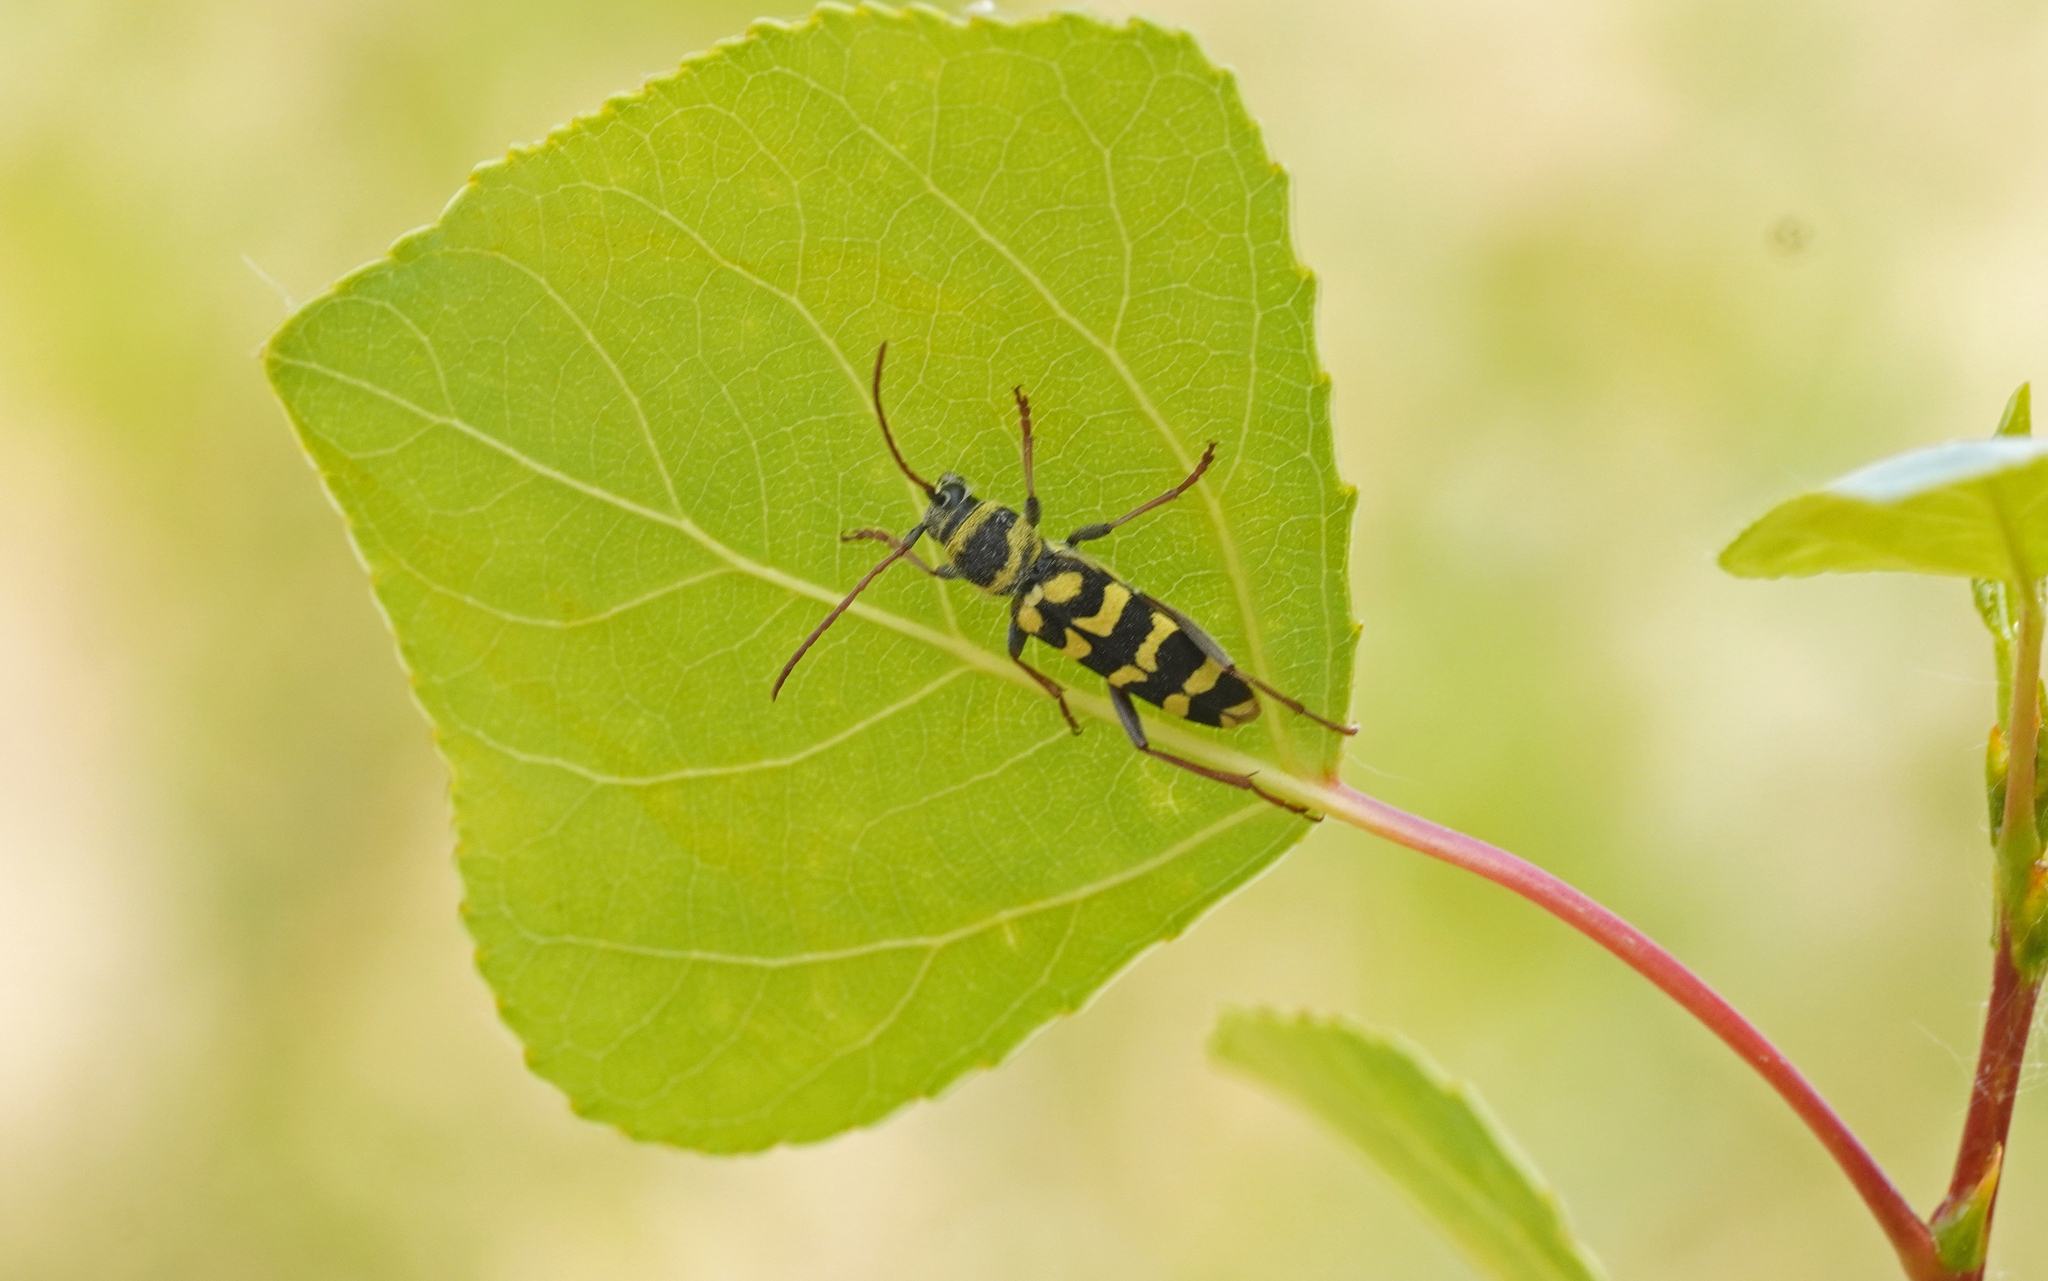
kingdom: Animalia
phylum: Arthropoda
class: Insecta
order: Coleoptera
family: Cerambycidae
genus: Plagionotus
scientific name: Plagionotus floralis
